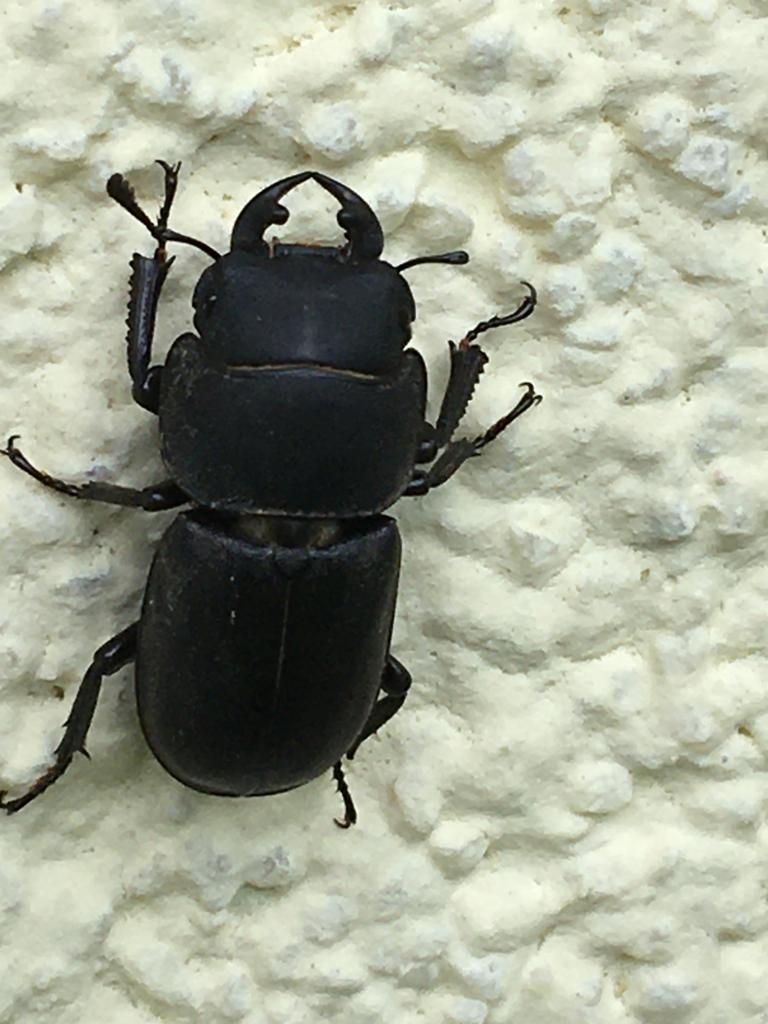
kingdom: Animalia
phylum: Arthropoda
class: Insecta
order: Coleoptera
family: Lucanidae
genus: Dorcus
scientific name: Dorcus parallelipipedus
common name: Lesser stag beetle
